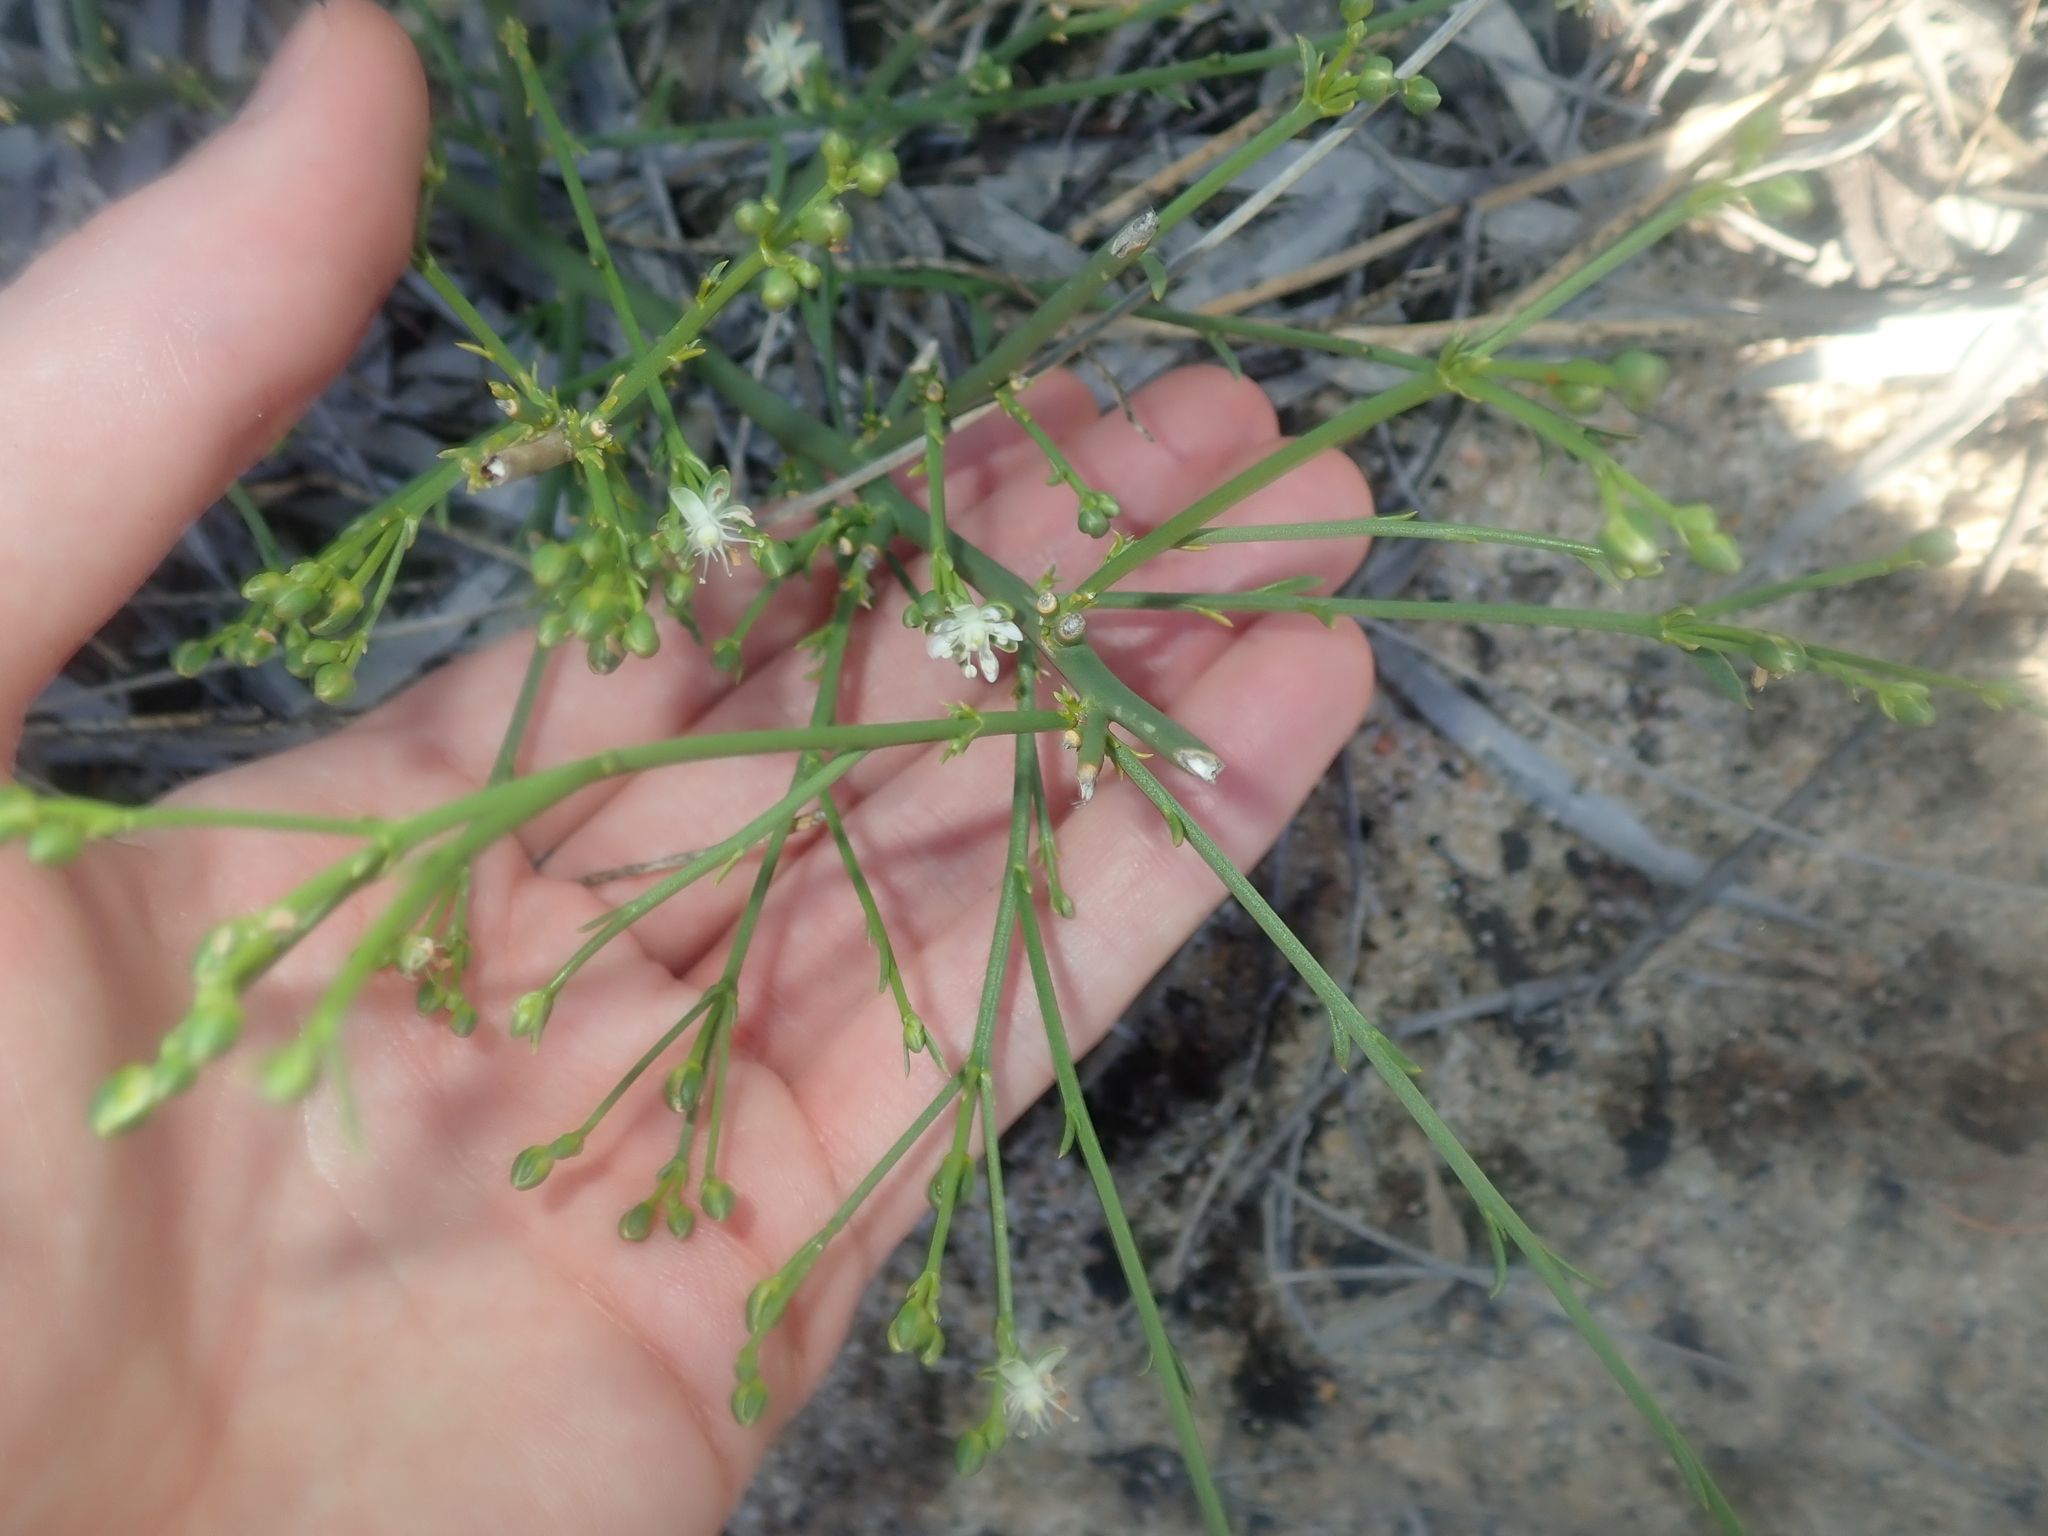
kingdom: Plantae
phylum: Tracheophyta
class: Magnoliopsida
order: Caryophyllales
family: Macarthuriaceae
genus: Macarthuria
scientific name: Macarthuria australis
